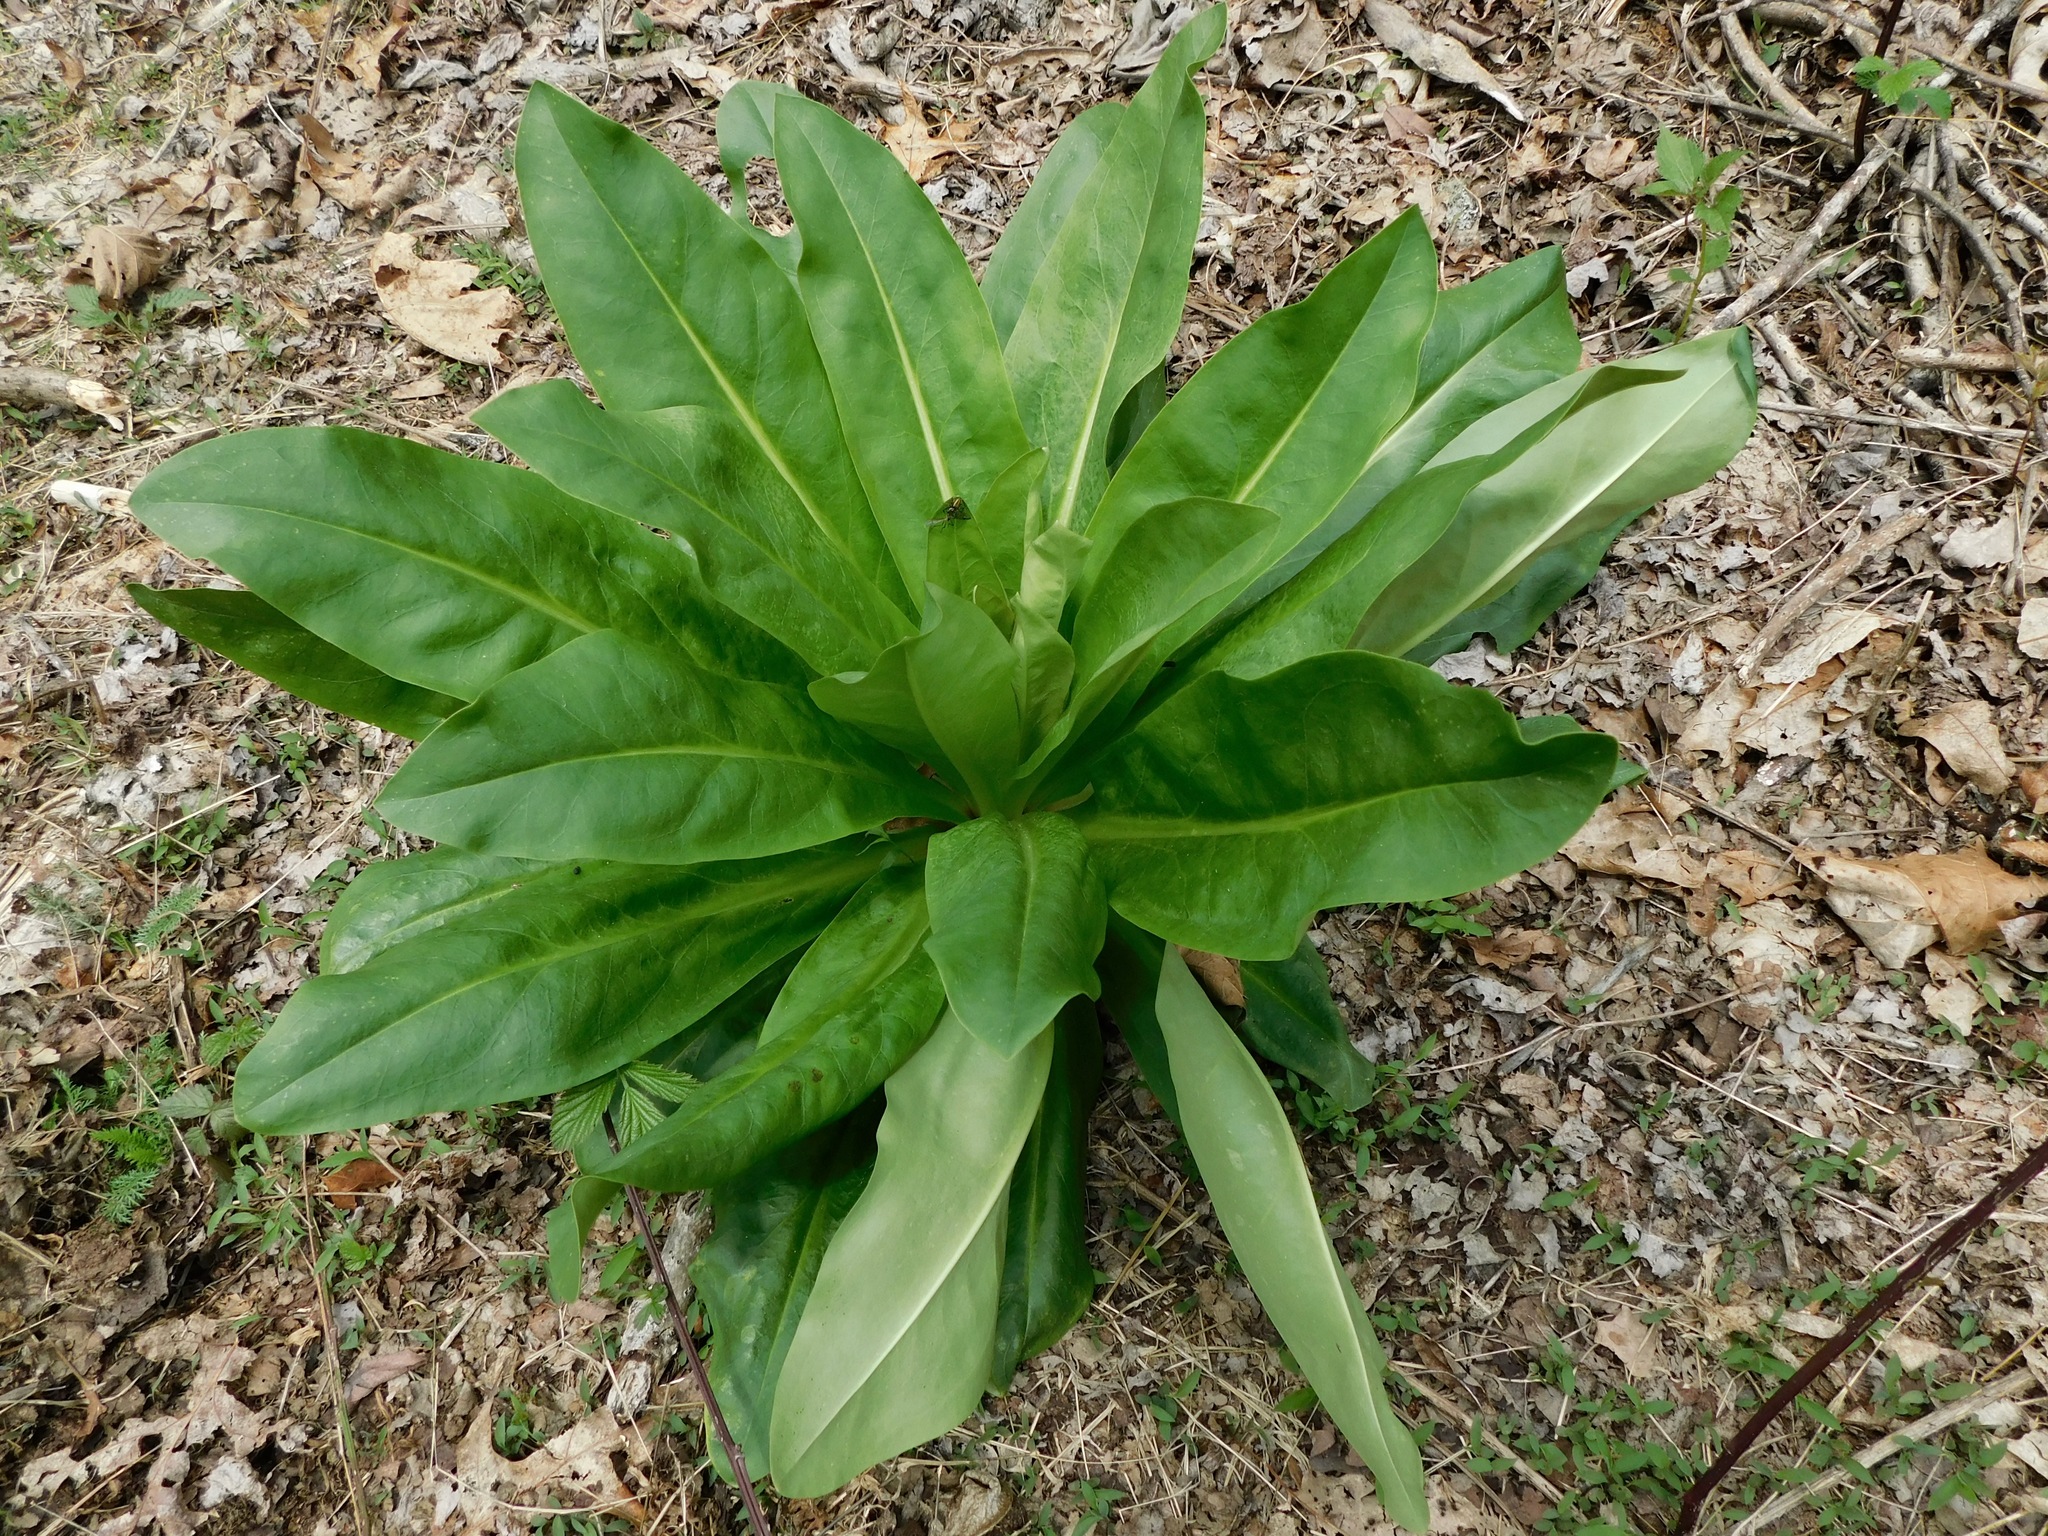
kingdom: Animalia
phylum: Arthropoda
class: Arachnida
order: Araneae
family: Salticidae
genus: Colonus
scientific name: Colonus sylvanus
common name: Jumping spiders
